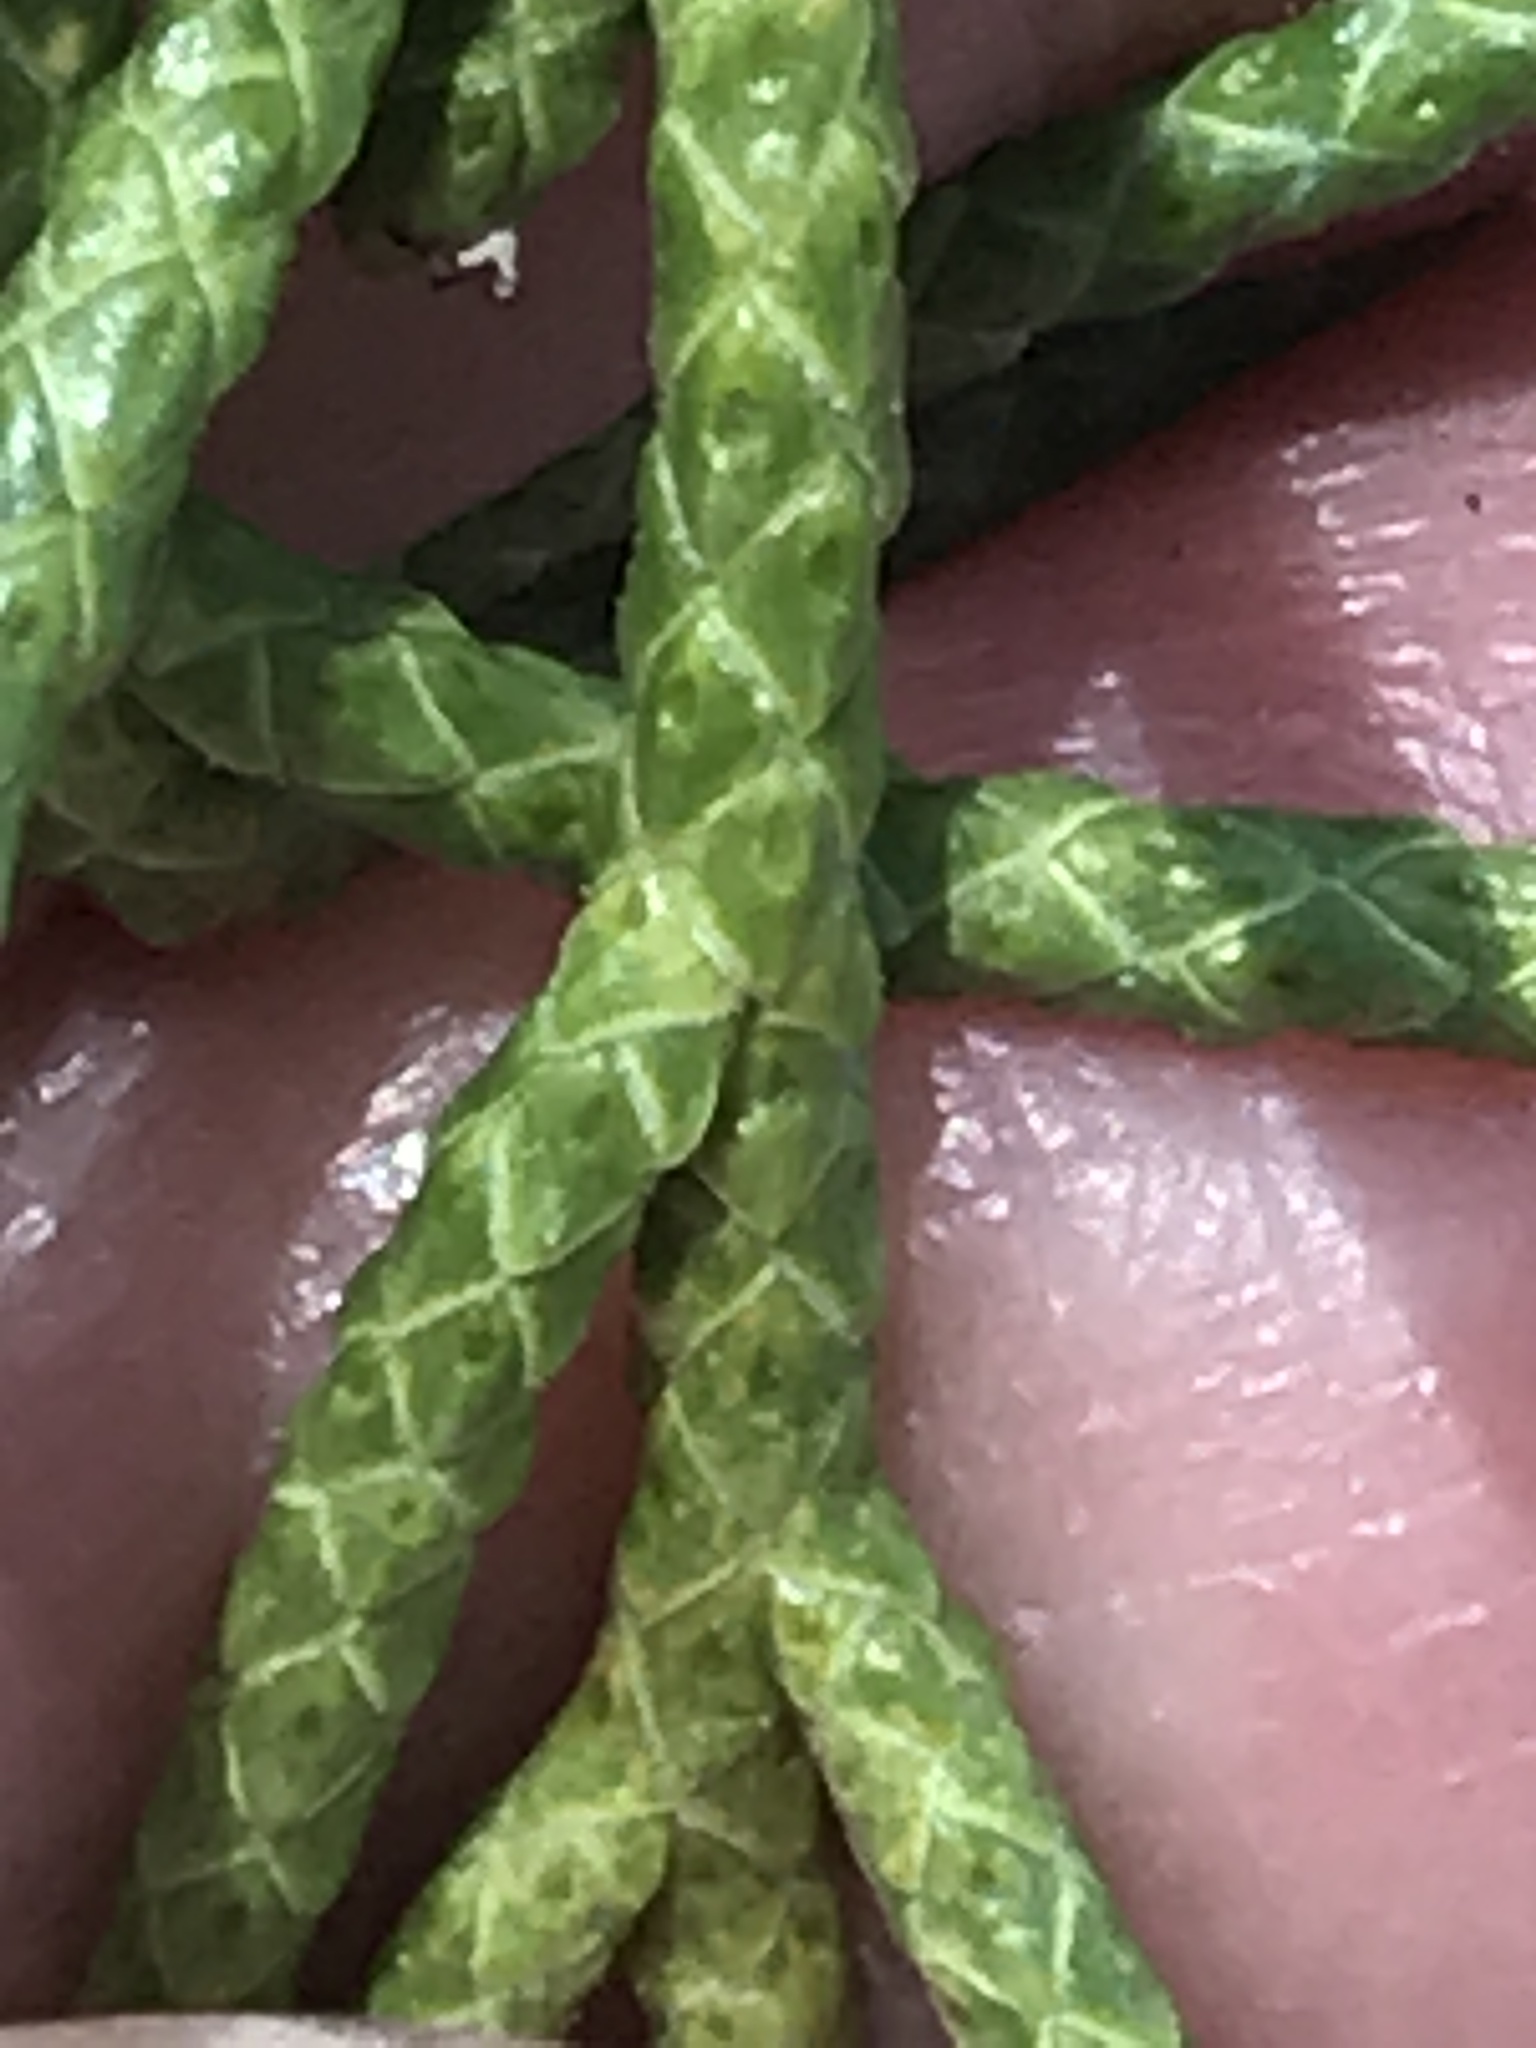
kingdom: Plantae
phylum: Tracheophyta
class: Pinopsida
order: Pinales
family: Cupressaceae
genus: Juniperus
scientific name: Juniperus occidentalis
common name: Western juniper
